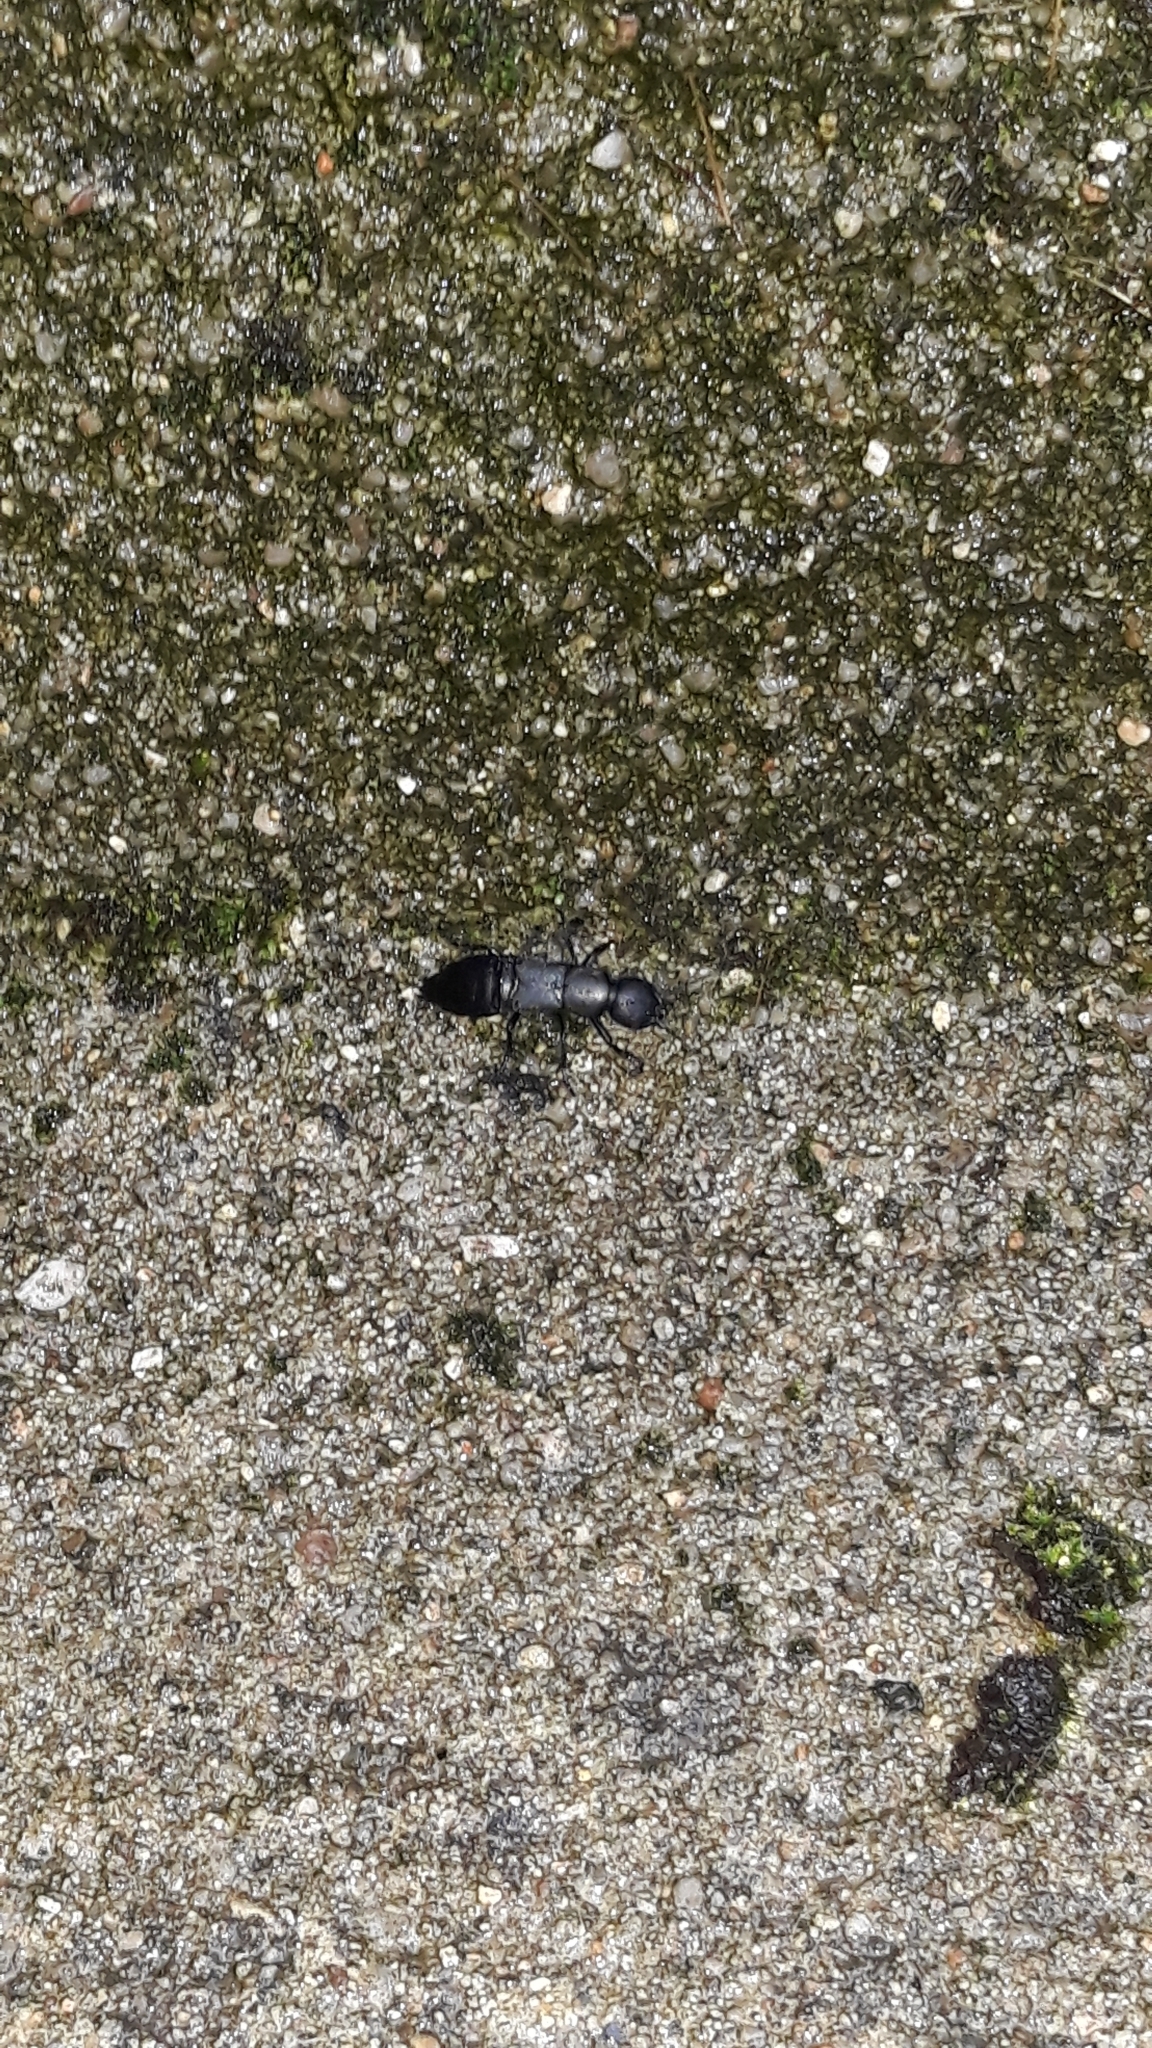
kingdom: Animalia
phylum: Arthropoda
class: Insecta
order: Coleoptera
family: Staphylinidae
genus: Ocypus
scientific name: Ocypus
